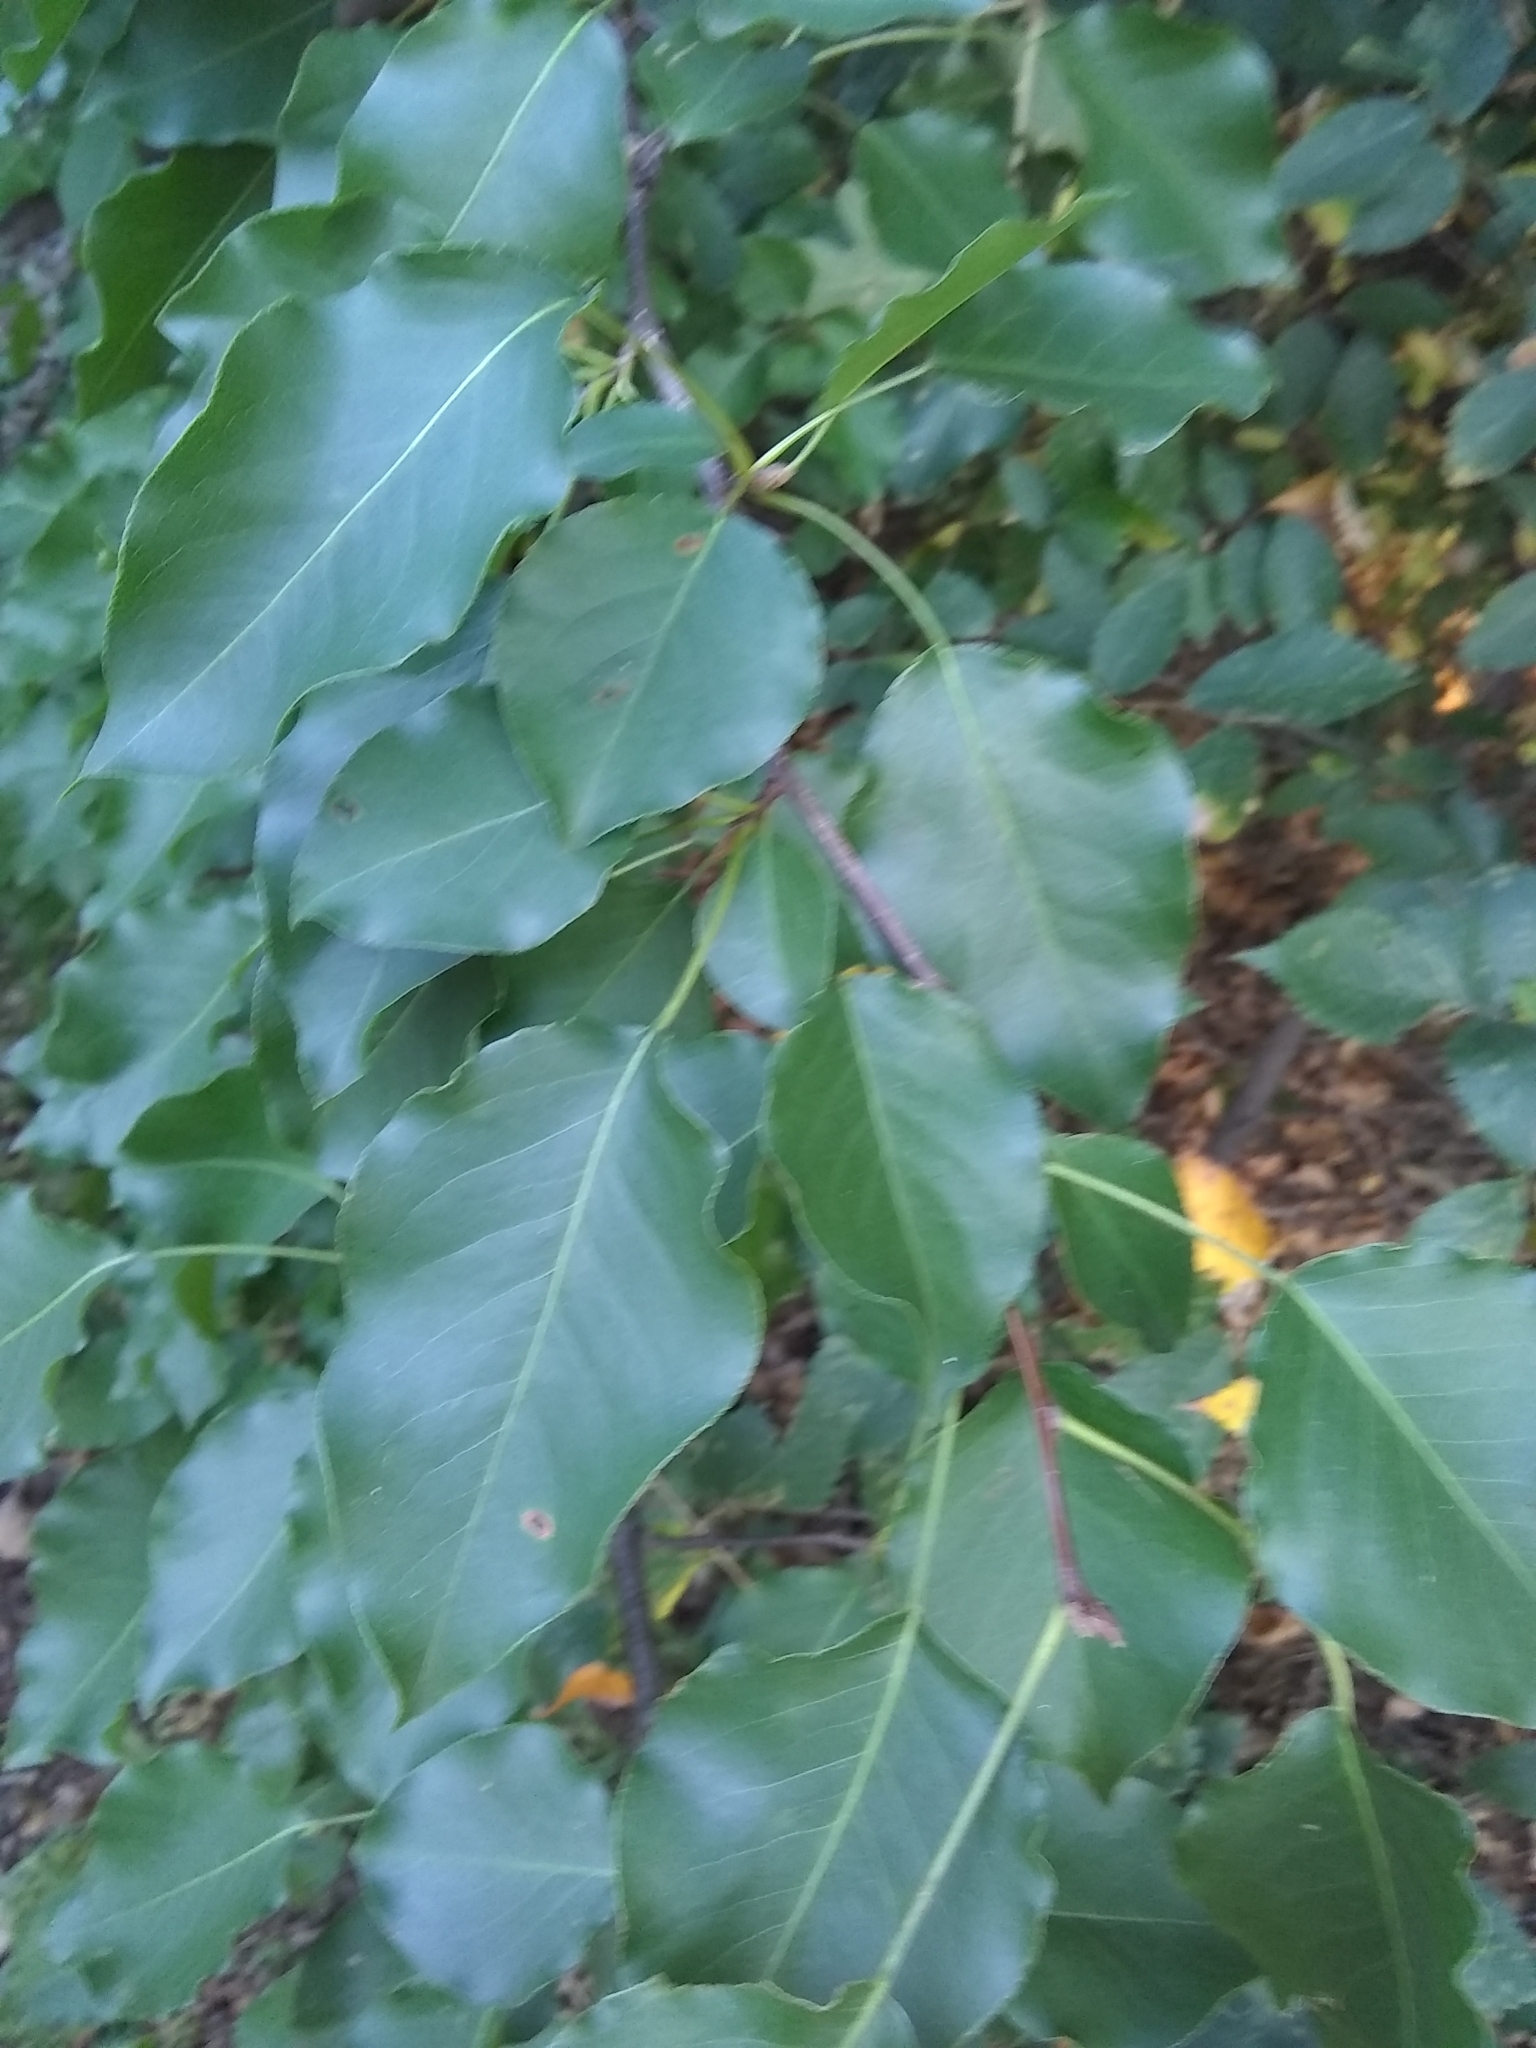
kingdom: Plantae
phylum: Tracheophyta
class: Magnoliopsida
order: Rosales
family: Rosaceae
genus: Pyrus
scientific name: Pyrus calleryana
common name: Callery pear
